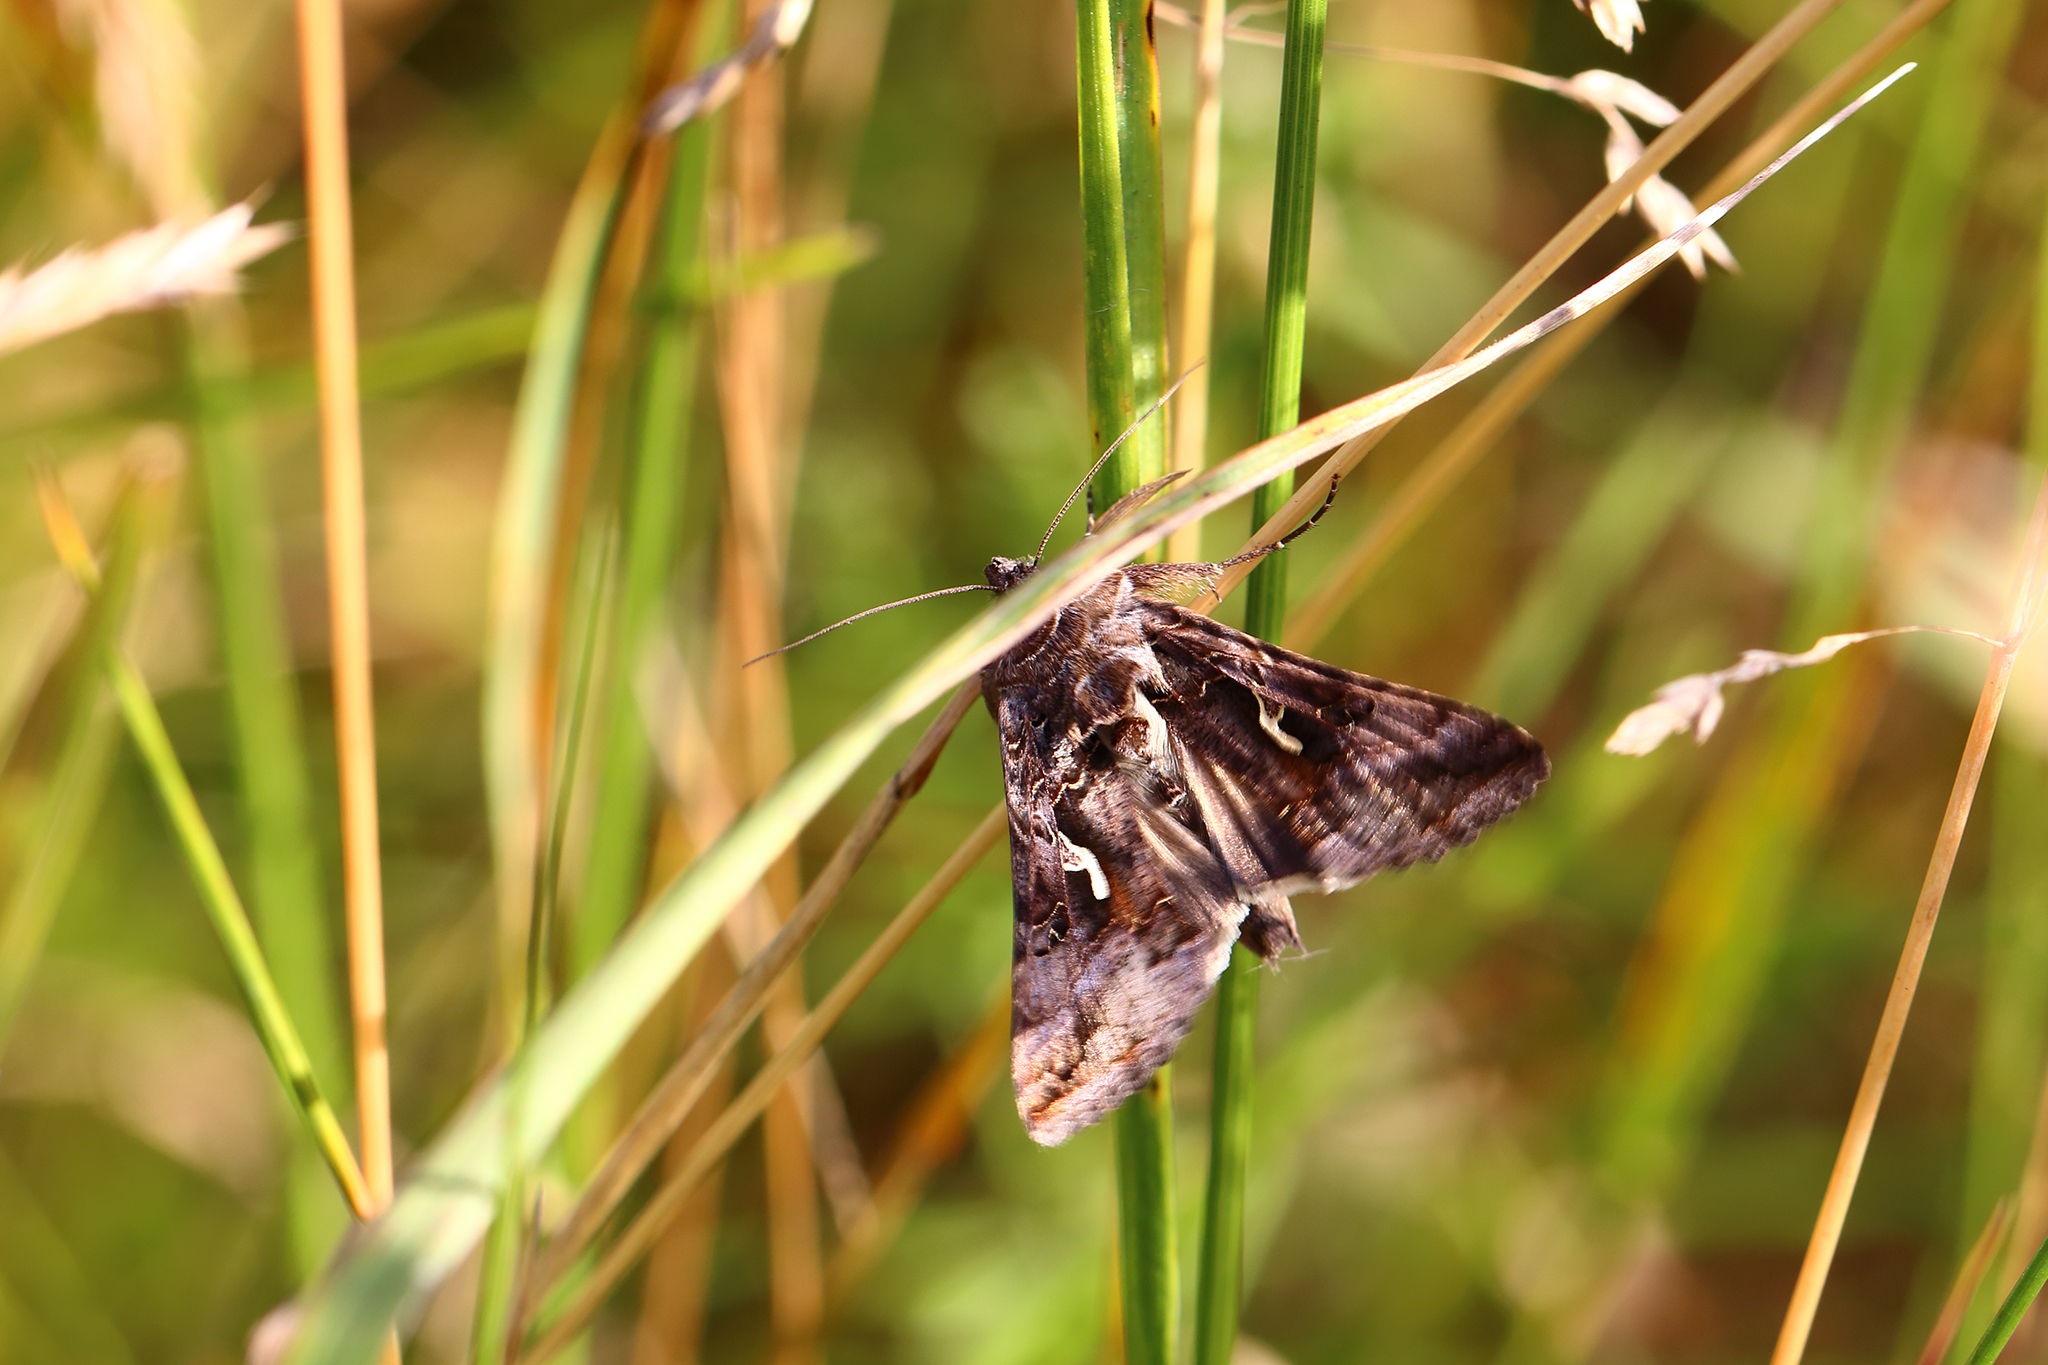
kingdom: Animalia
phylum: Arthropoda
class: Insecta
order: Lepidoptera
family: Noctuidae
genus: Autographa
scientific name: Autographa gamma
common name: Silver y
